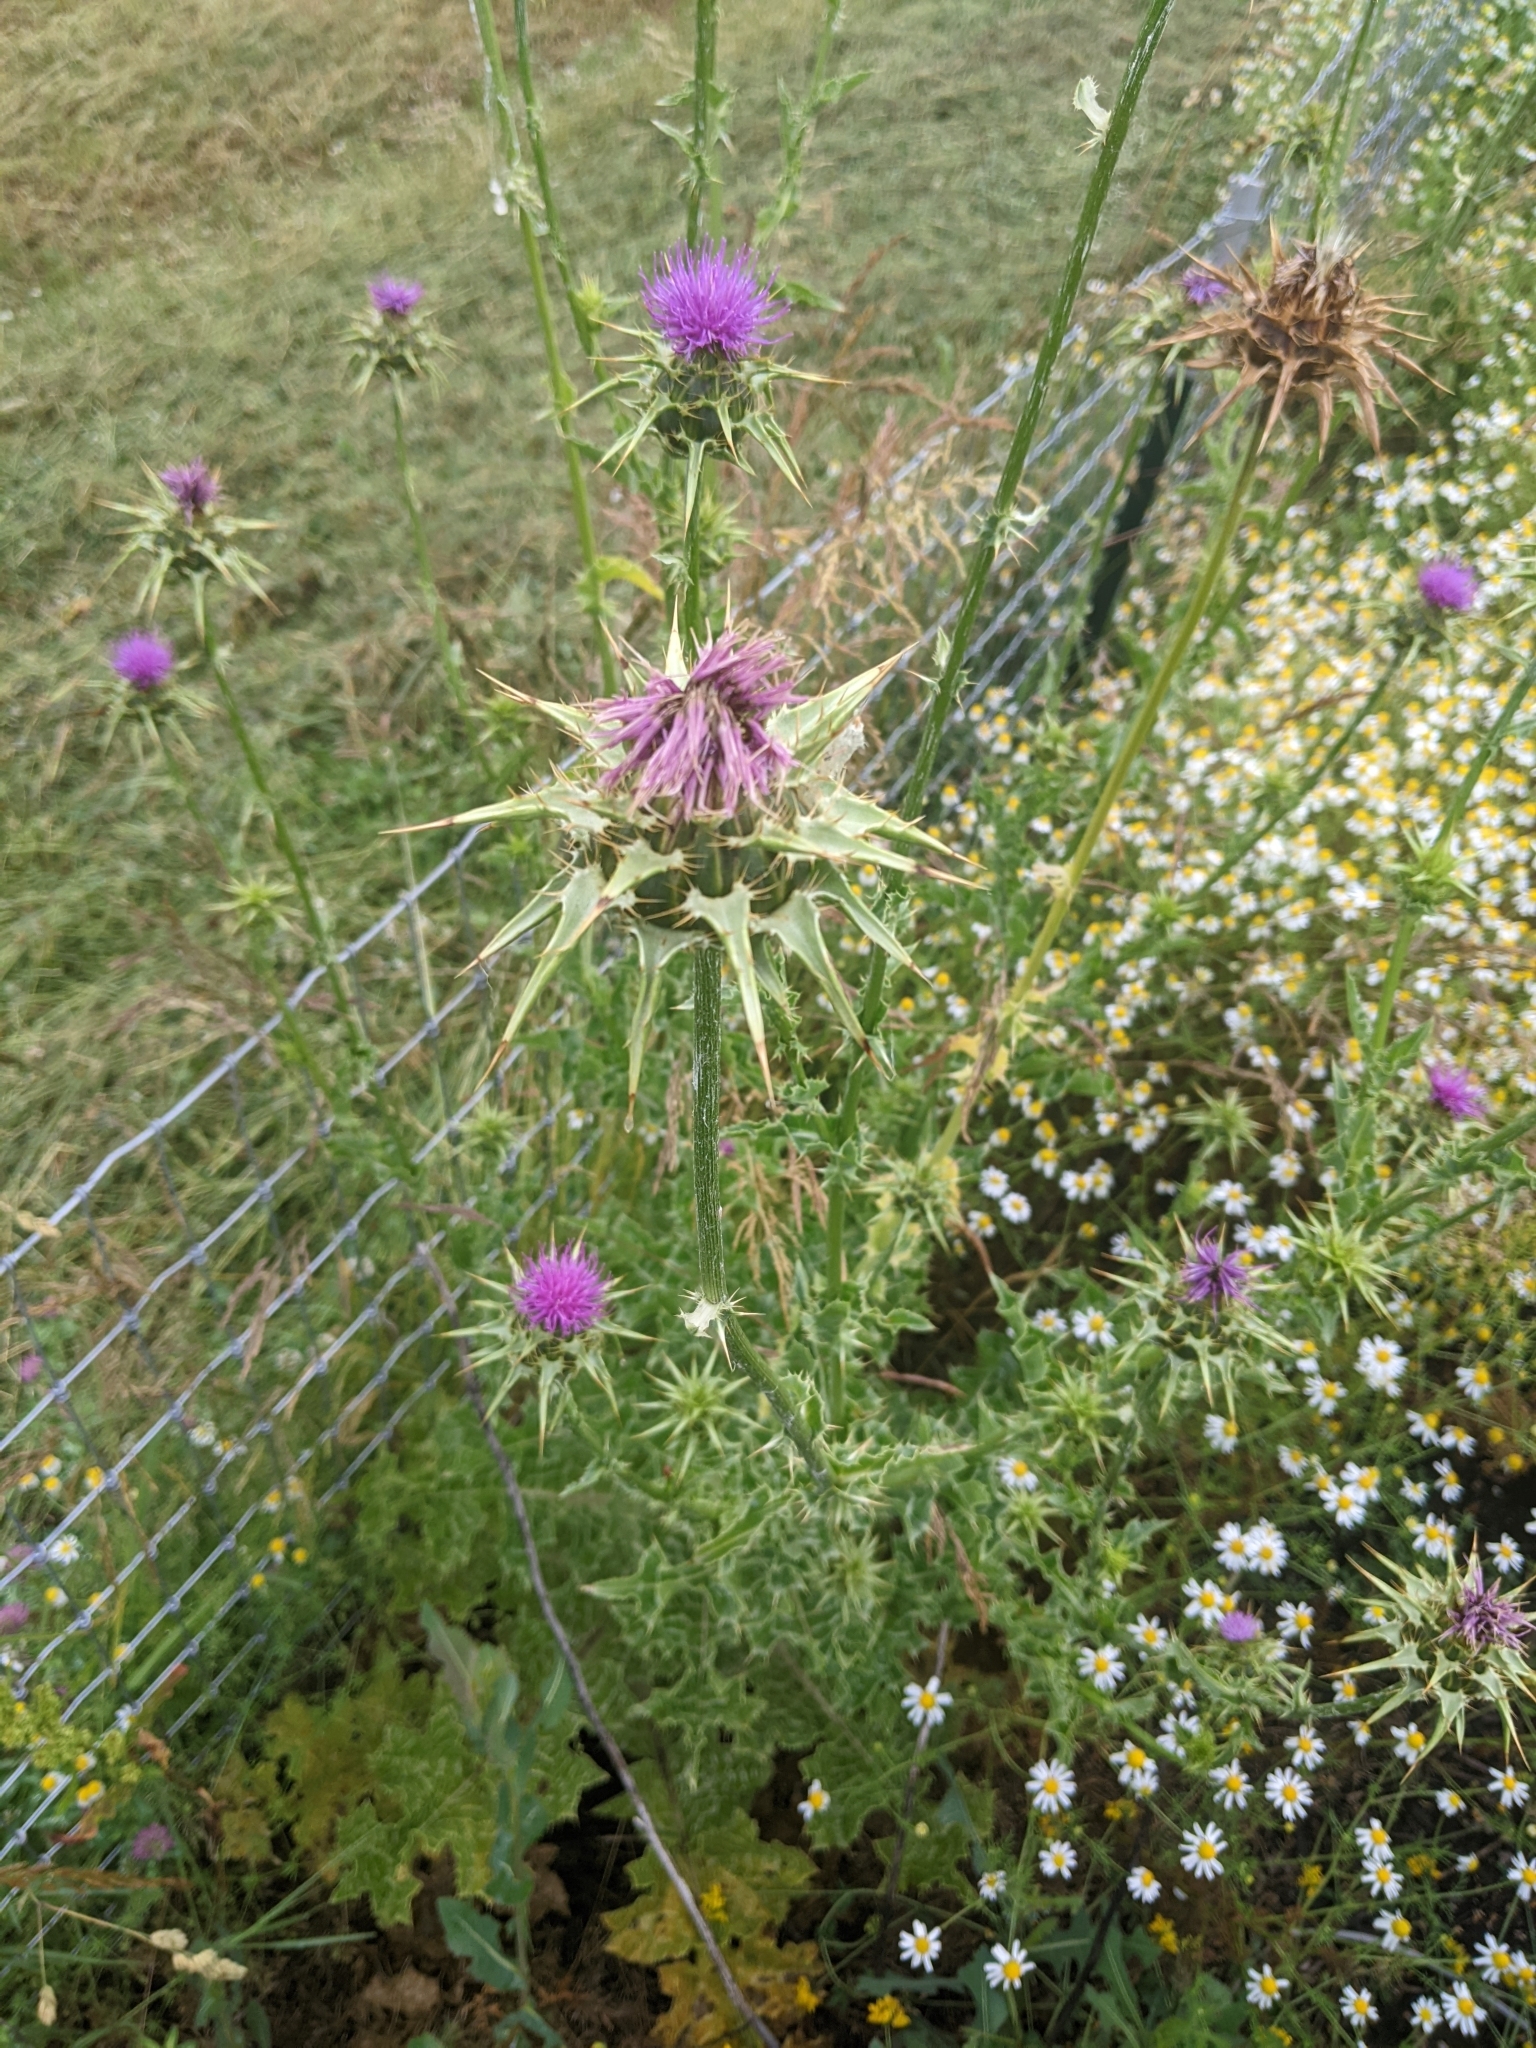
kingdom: Plantae
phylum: Tracheophyta
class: Magnoliopsida
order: Asterales
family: Asteraceae
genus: Silybum
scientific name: Silybum marianum
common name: Milk thistle
